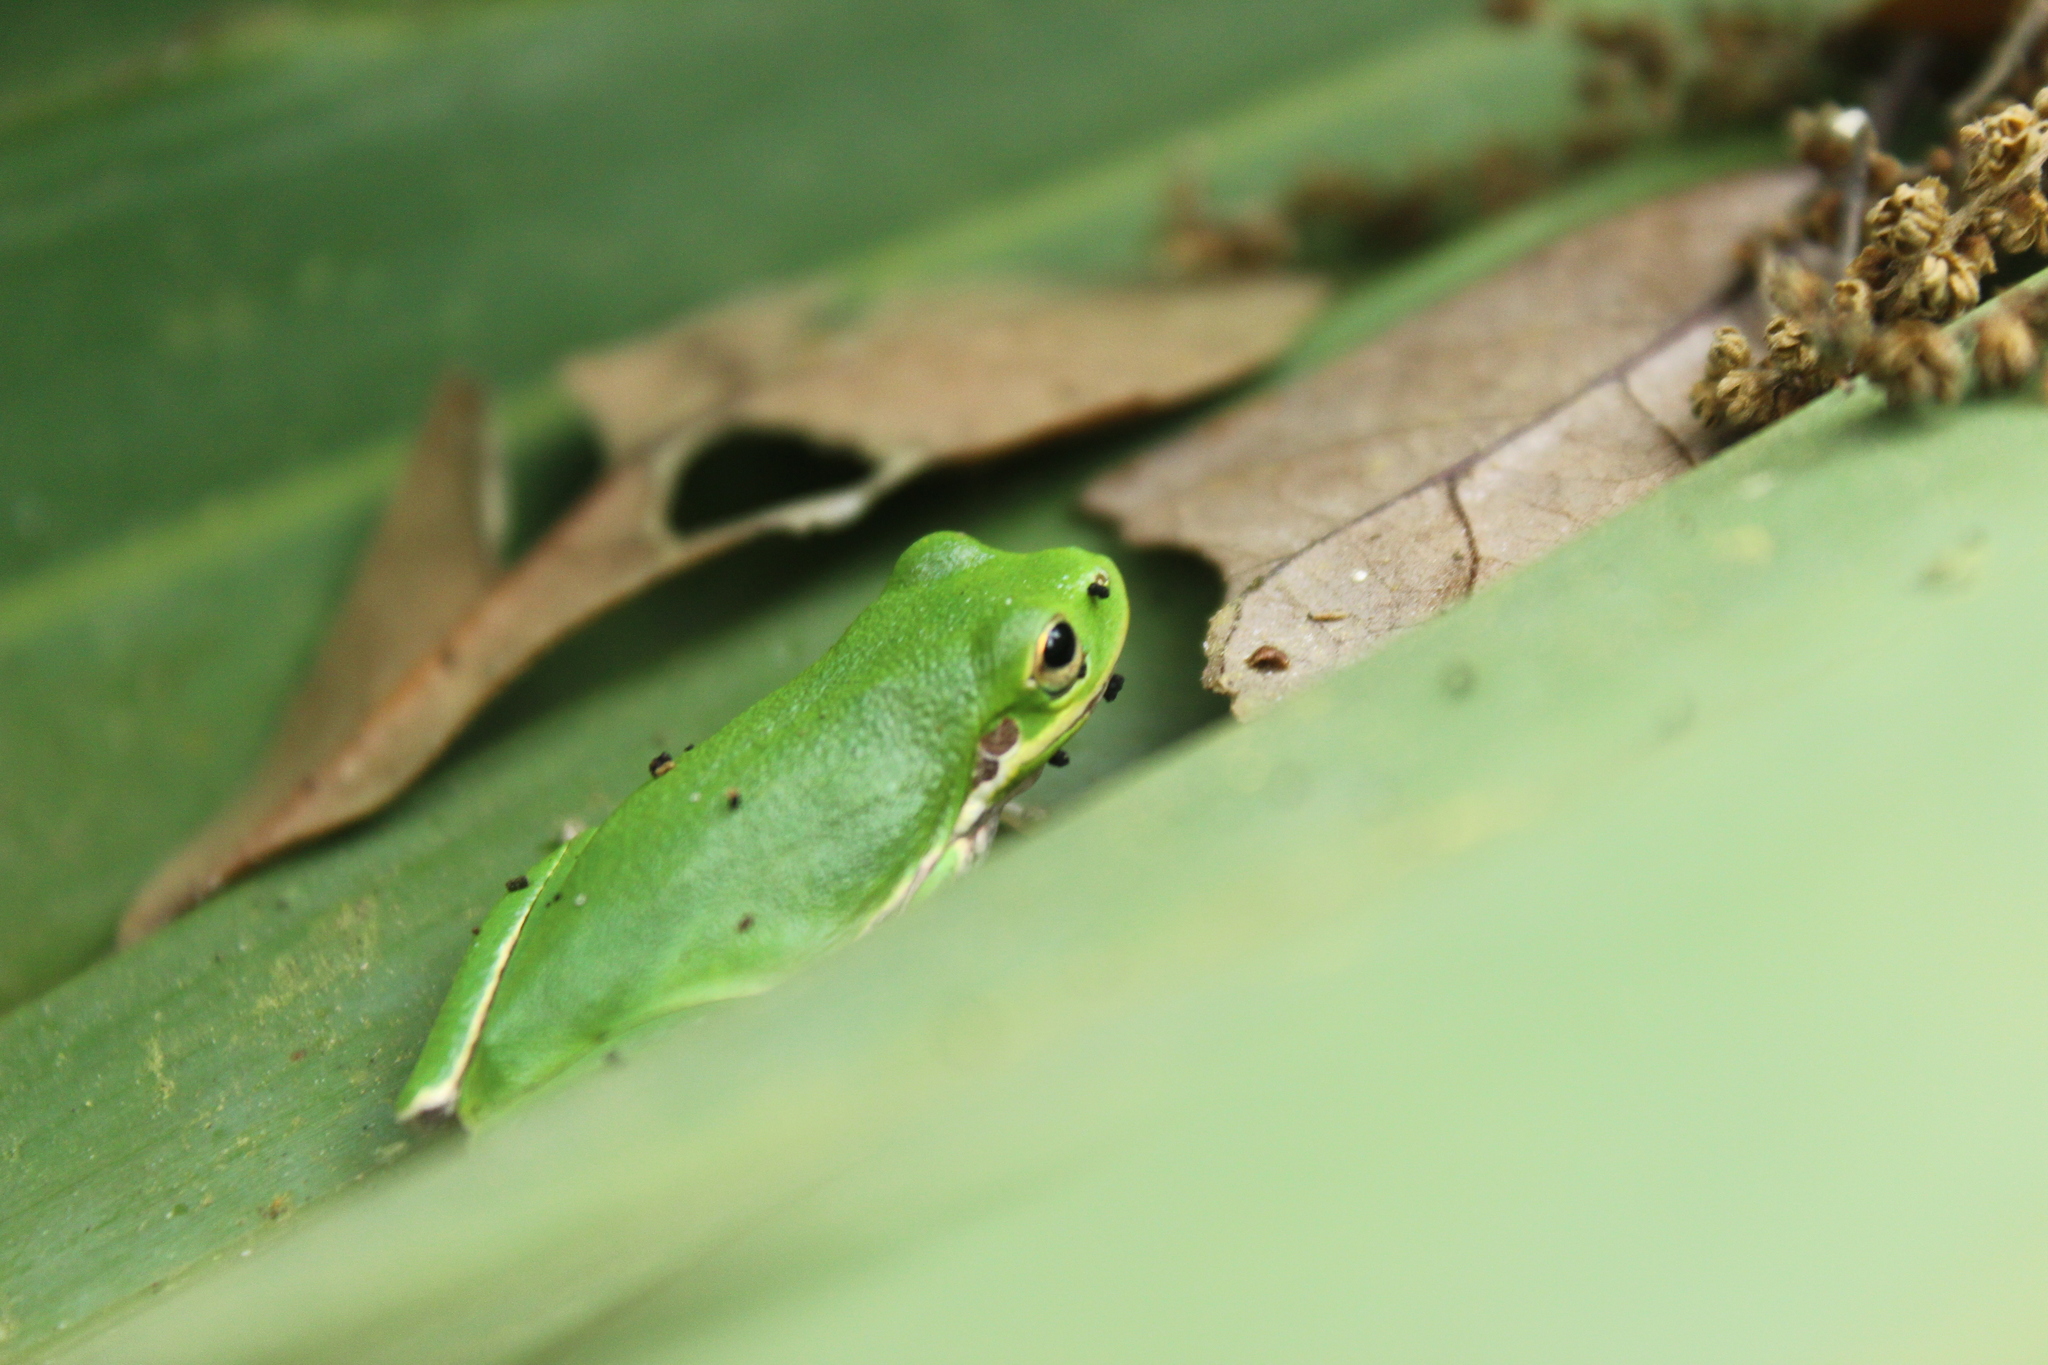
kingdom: Animalia
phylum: Chordata
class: Amphibia
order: Anura
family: Hylidae
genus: Dryophytes
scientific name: Dryophytes squirellus
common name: Squirrel treefrog
